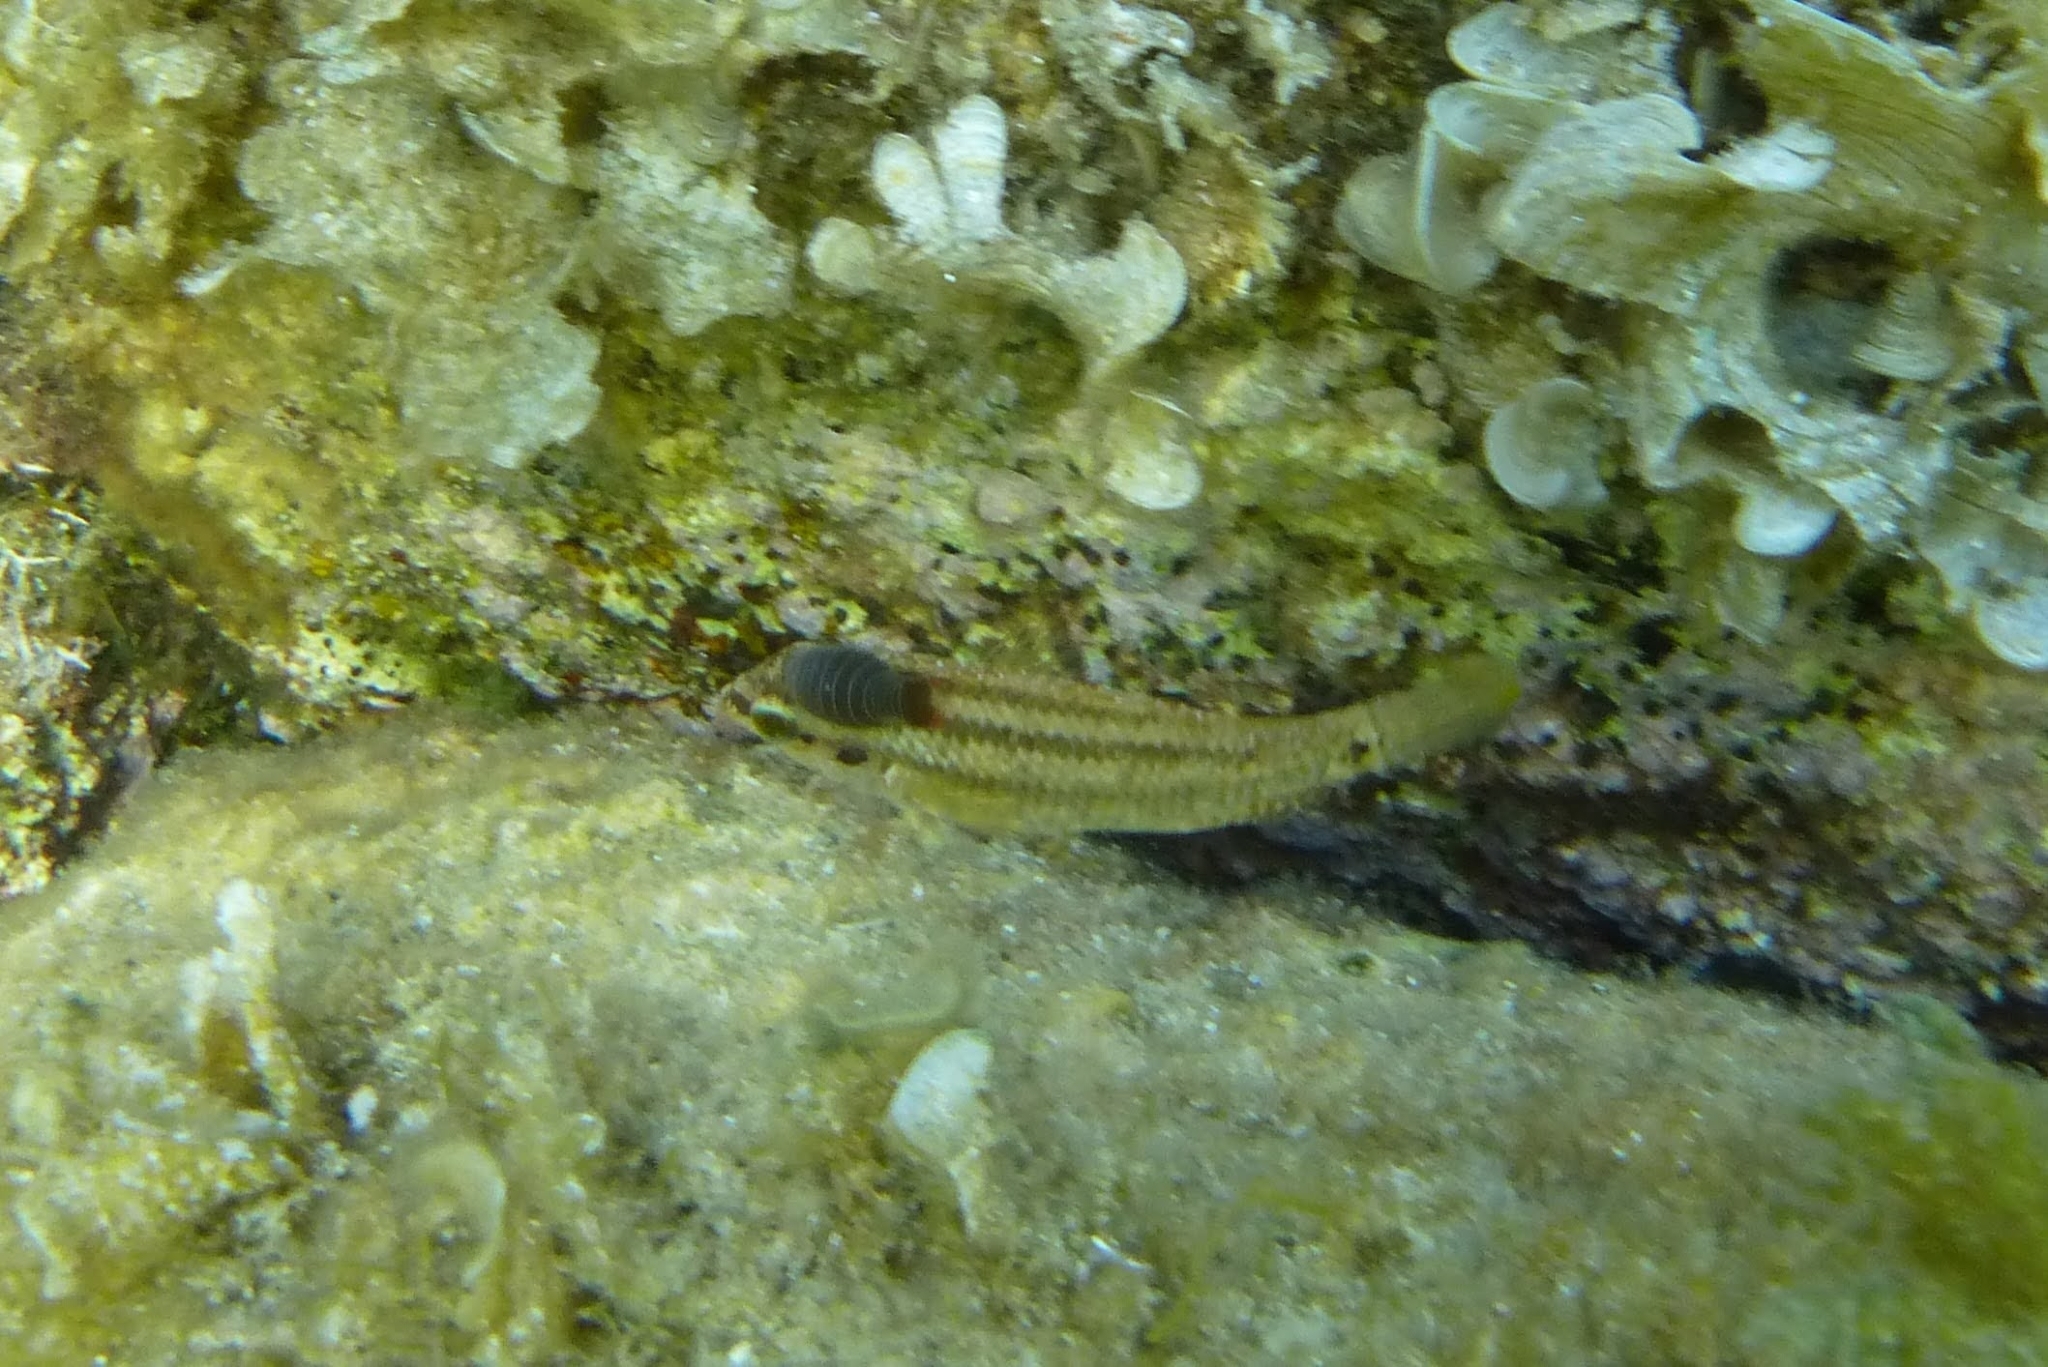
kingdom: Animalia
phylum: Chordata
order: Perciformes
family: Labridae
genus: Symphodus
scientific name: Symphodus roissali
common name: Five-spotted wrasse
